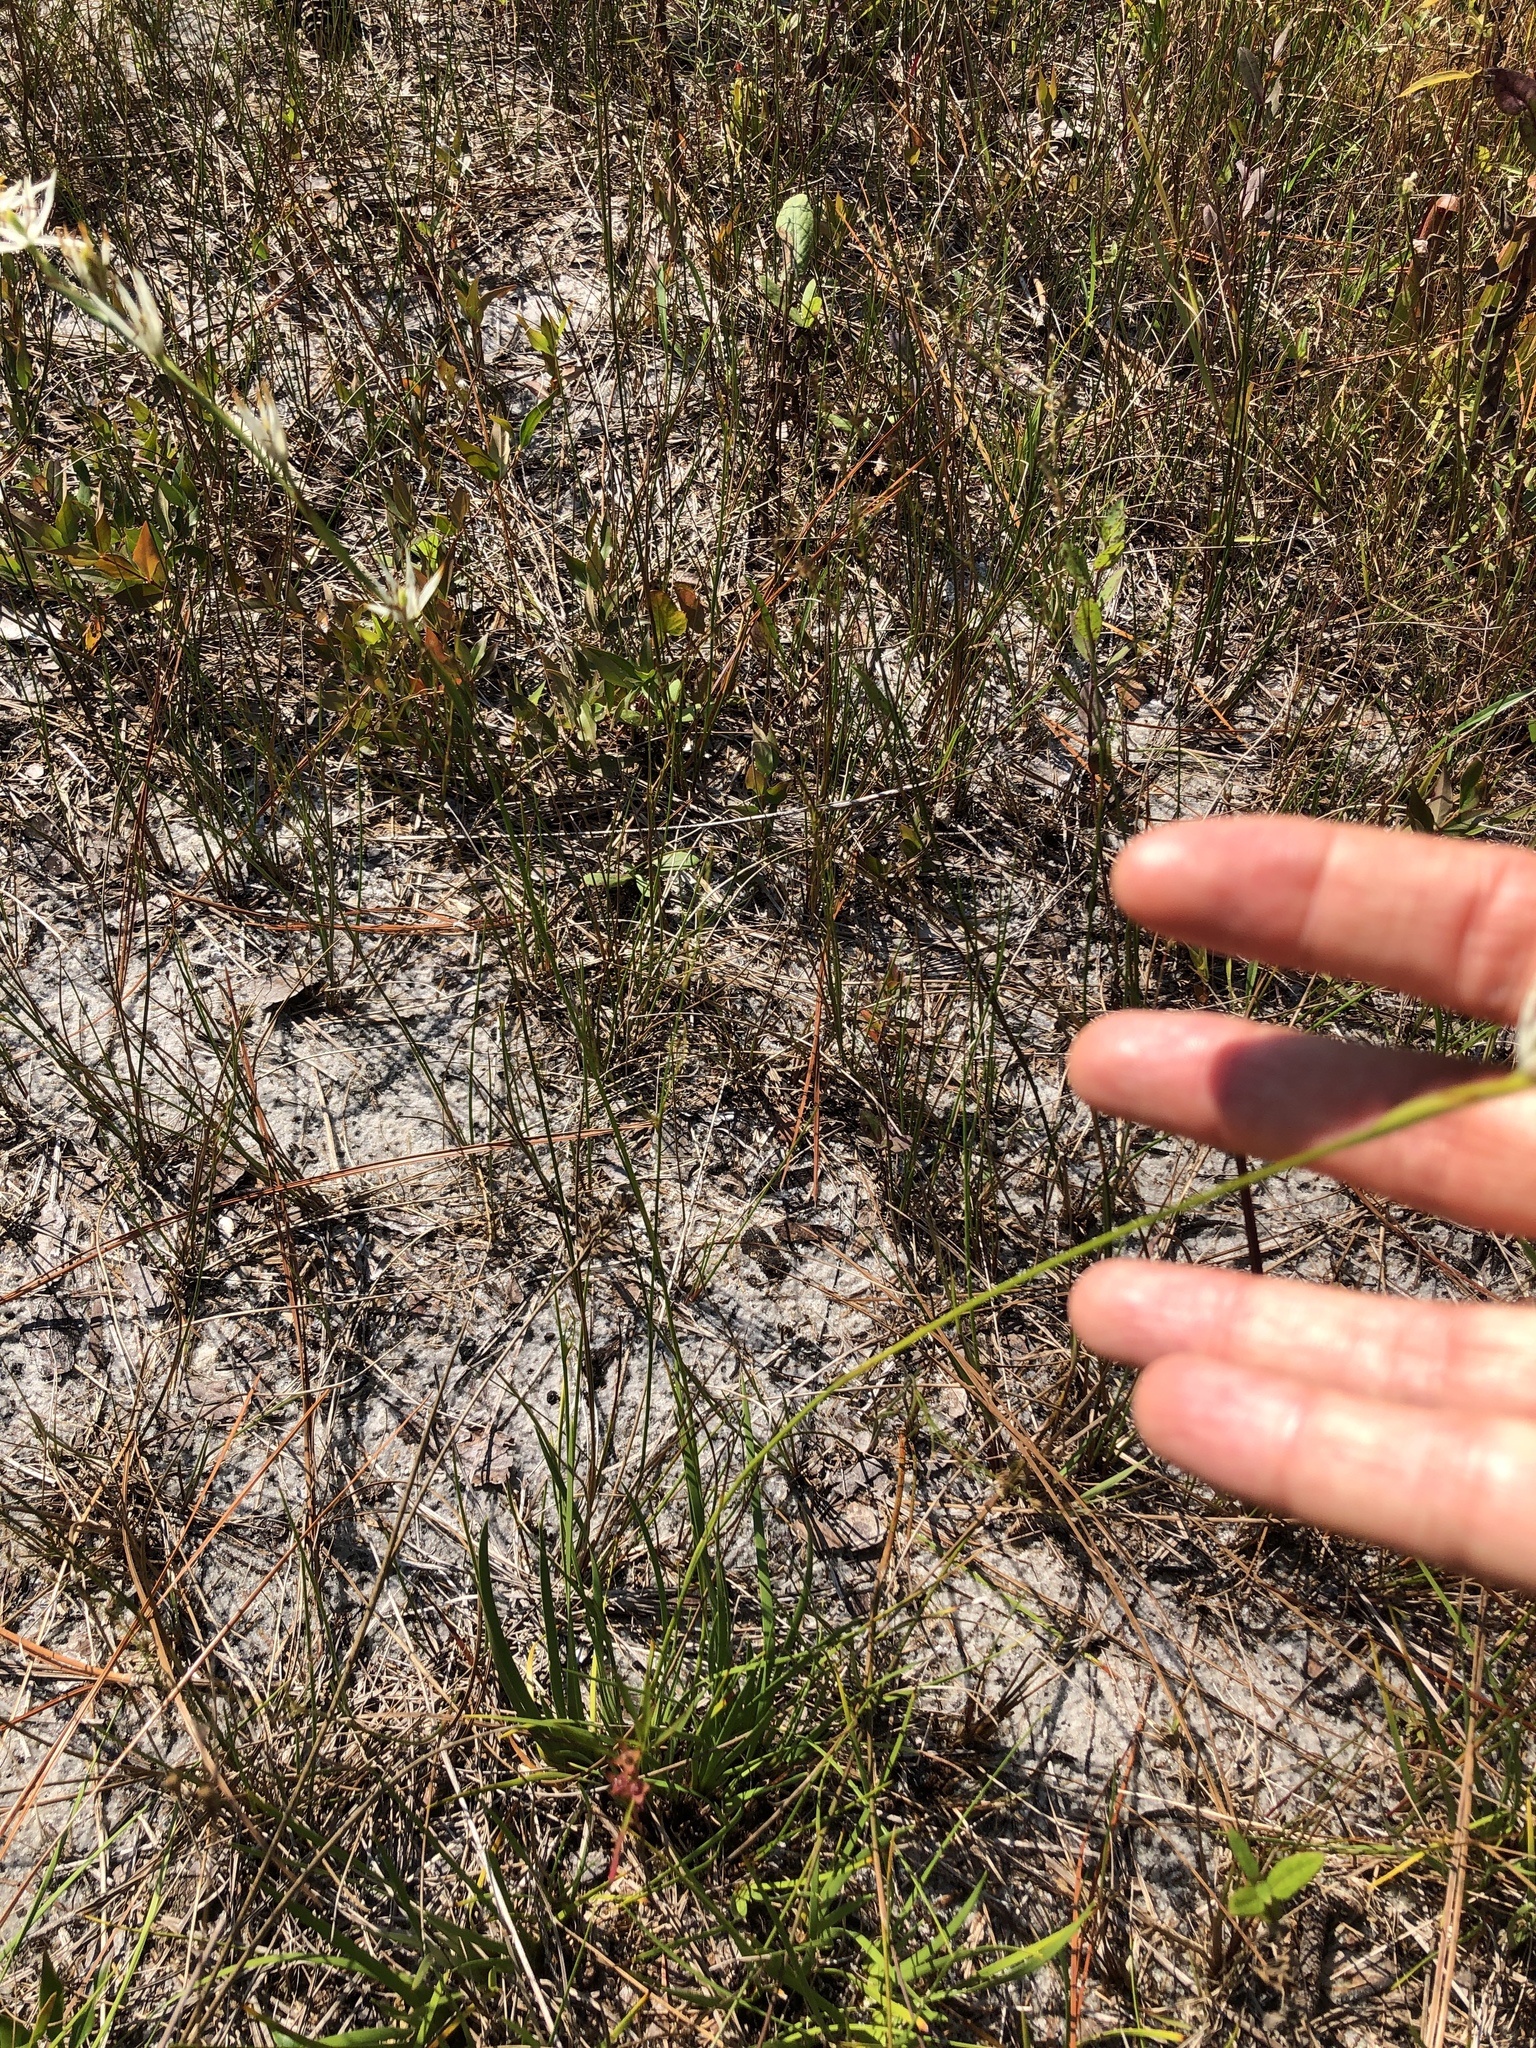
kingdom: Plantae
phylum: Tracheophyta
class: Liliopsida
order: Alismatales
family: Tofieldiaceae
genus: Pleea
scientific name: Pleea tenuifolia
